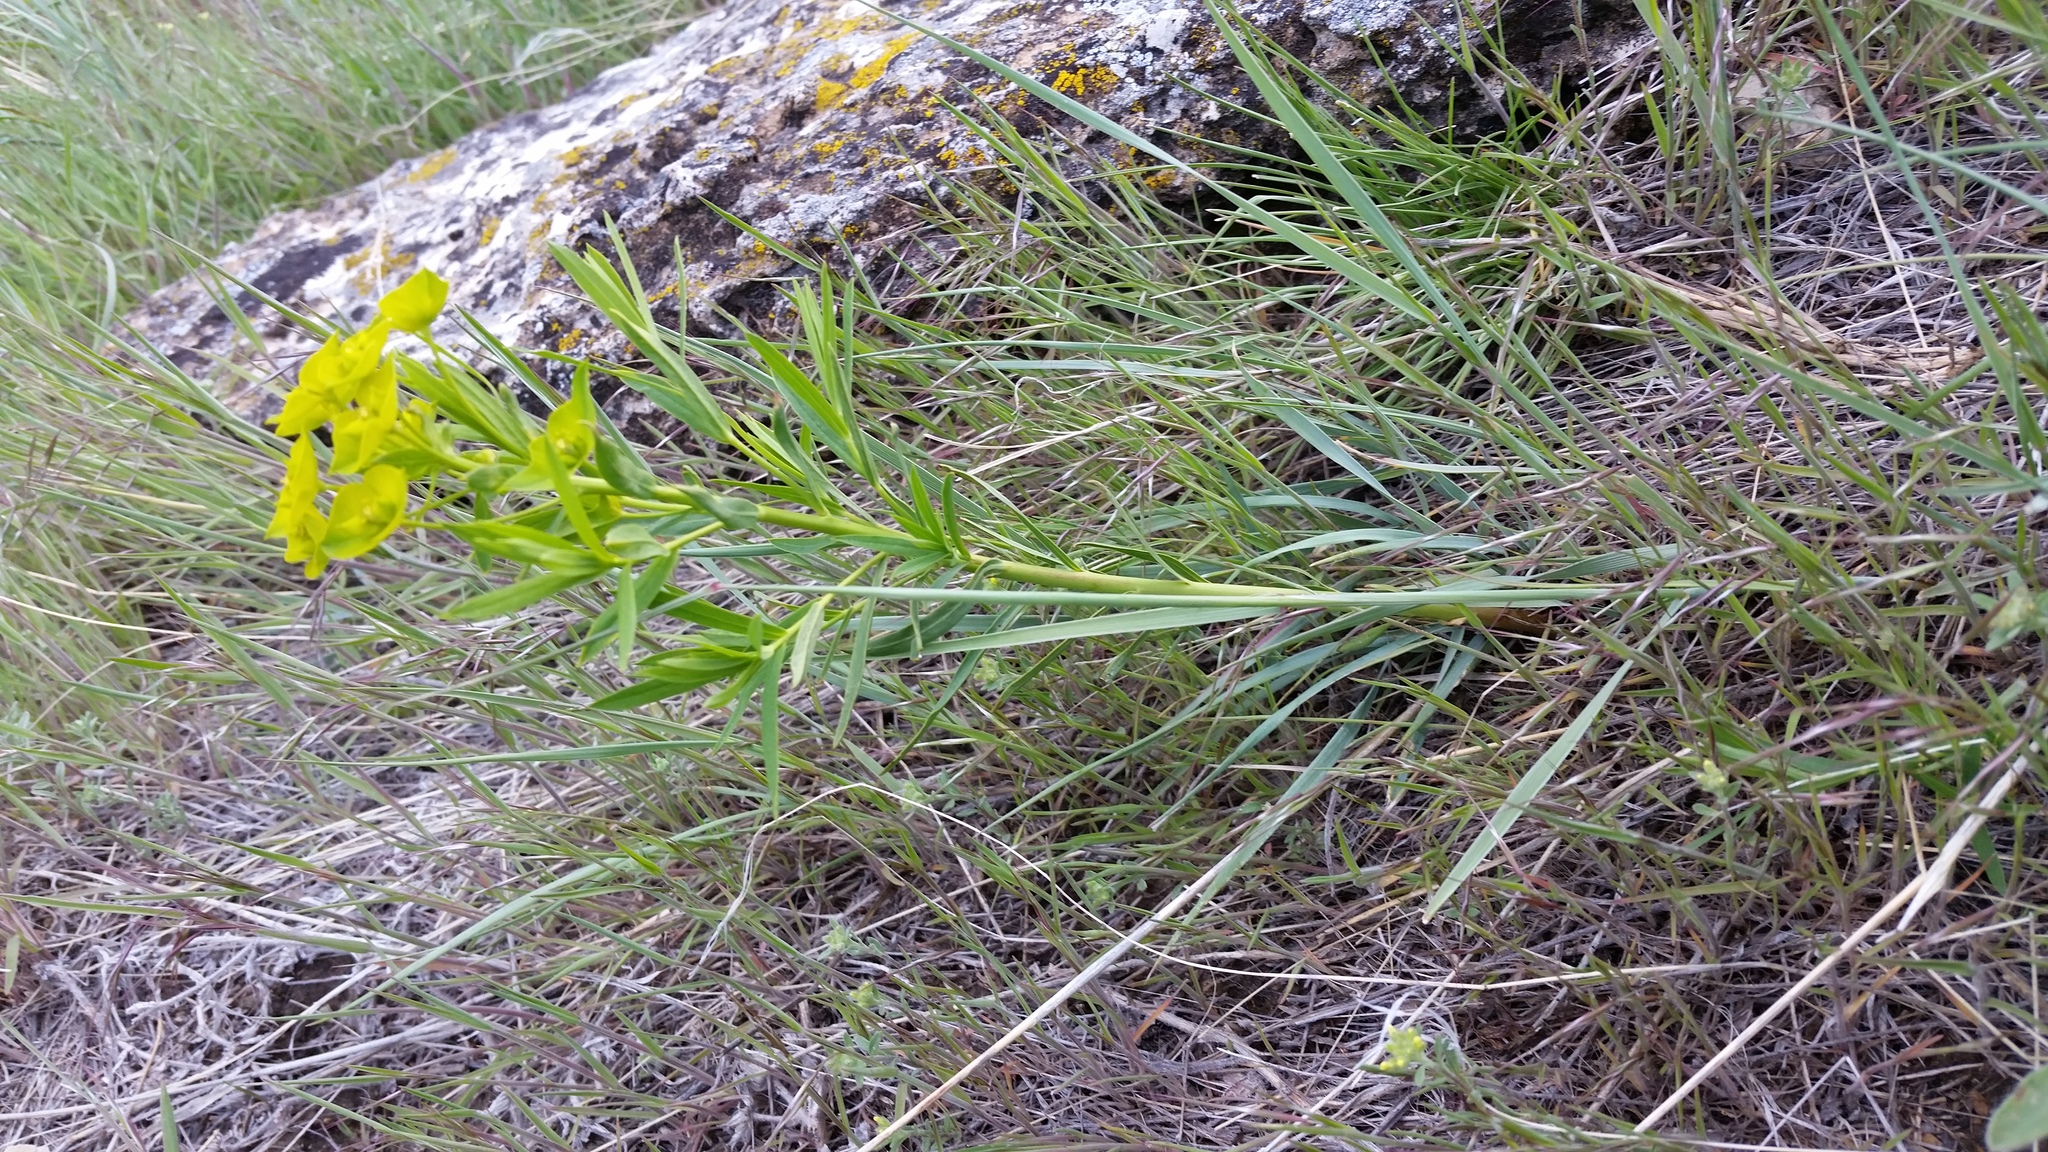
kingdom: Plantae
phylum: Tracheophyta
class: Magnoliopsida
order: Malpighiales
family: Euphorbiaceae
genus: Euphorbia
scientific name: Euphorbia virgata
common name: Leafy spurge
